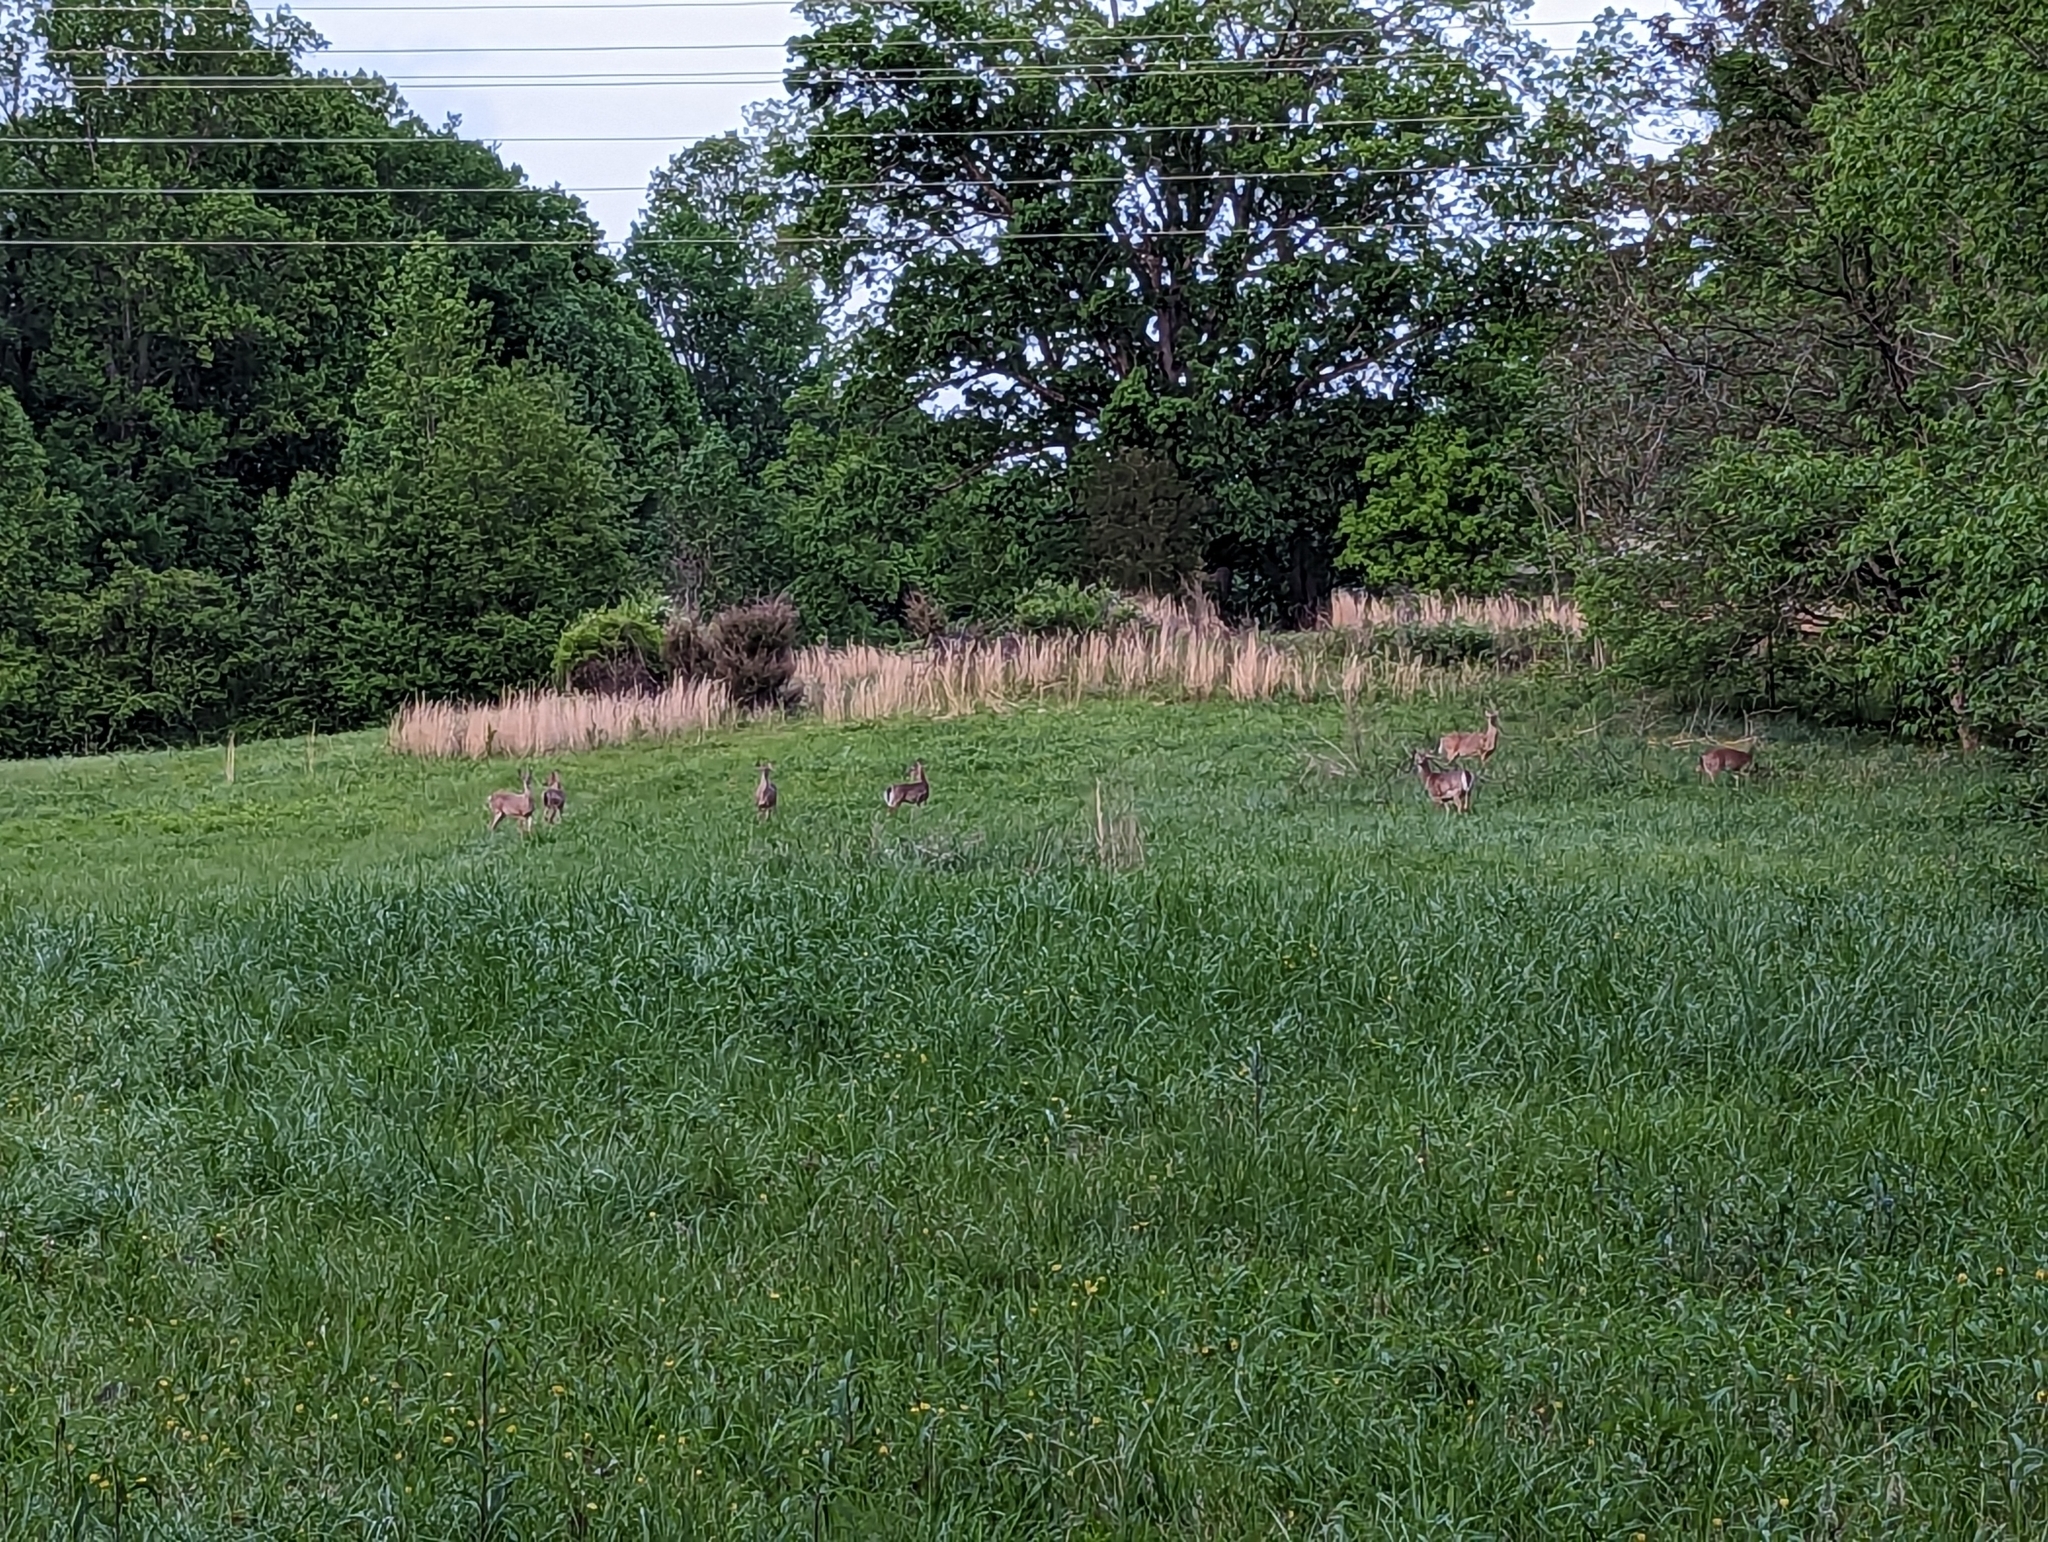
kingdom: Animalia
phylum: Chordata
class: Mammalia
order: Artiodactyla
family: Cervidae
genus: Odocoileus
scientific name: Odocoileus virginianus
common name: White-tailed deer
